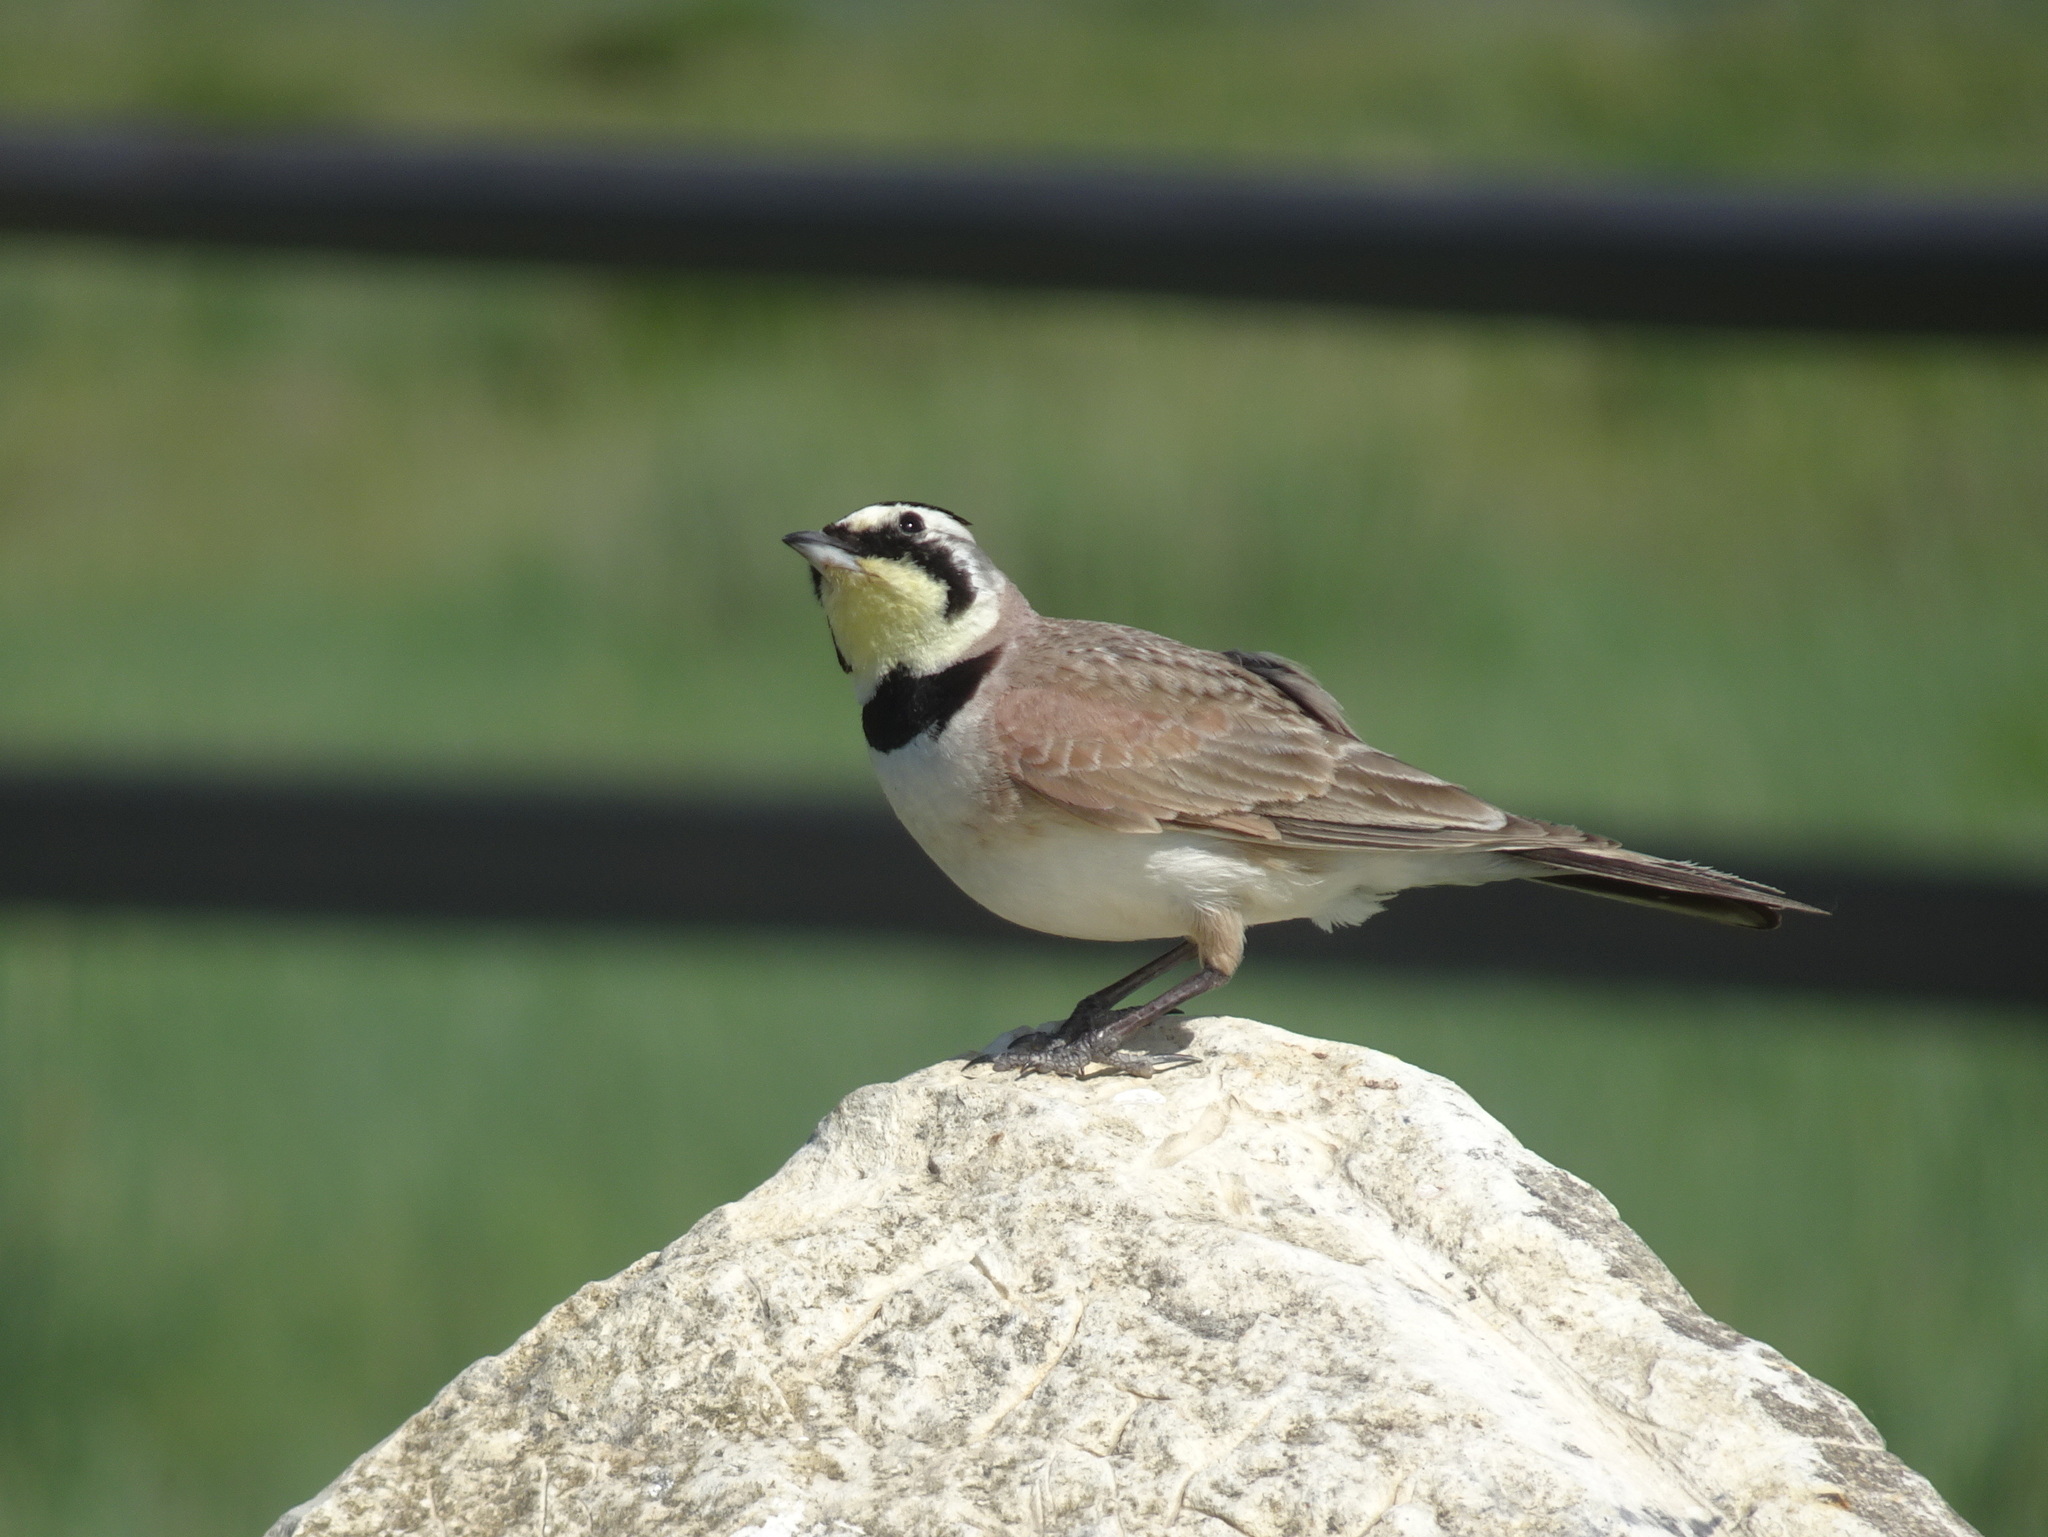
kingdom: Animalia
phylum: Chordata
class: Aves
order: Passeriformes
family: Alaudidae
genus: Eremophila
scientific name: Eremophila alpestris
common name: Horned lark
